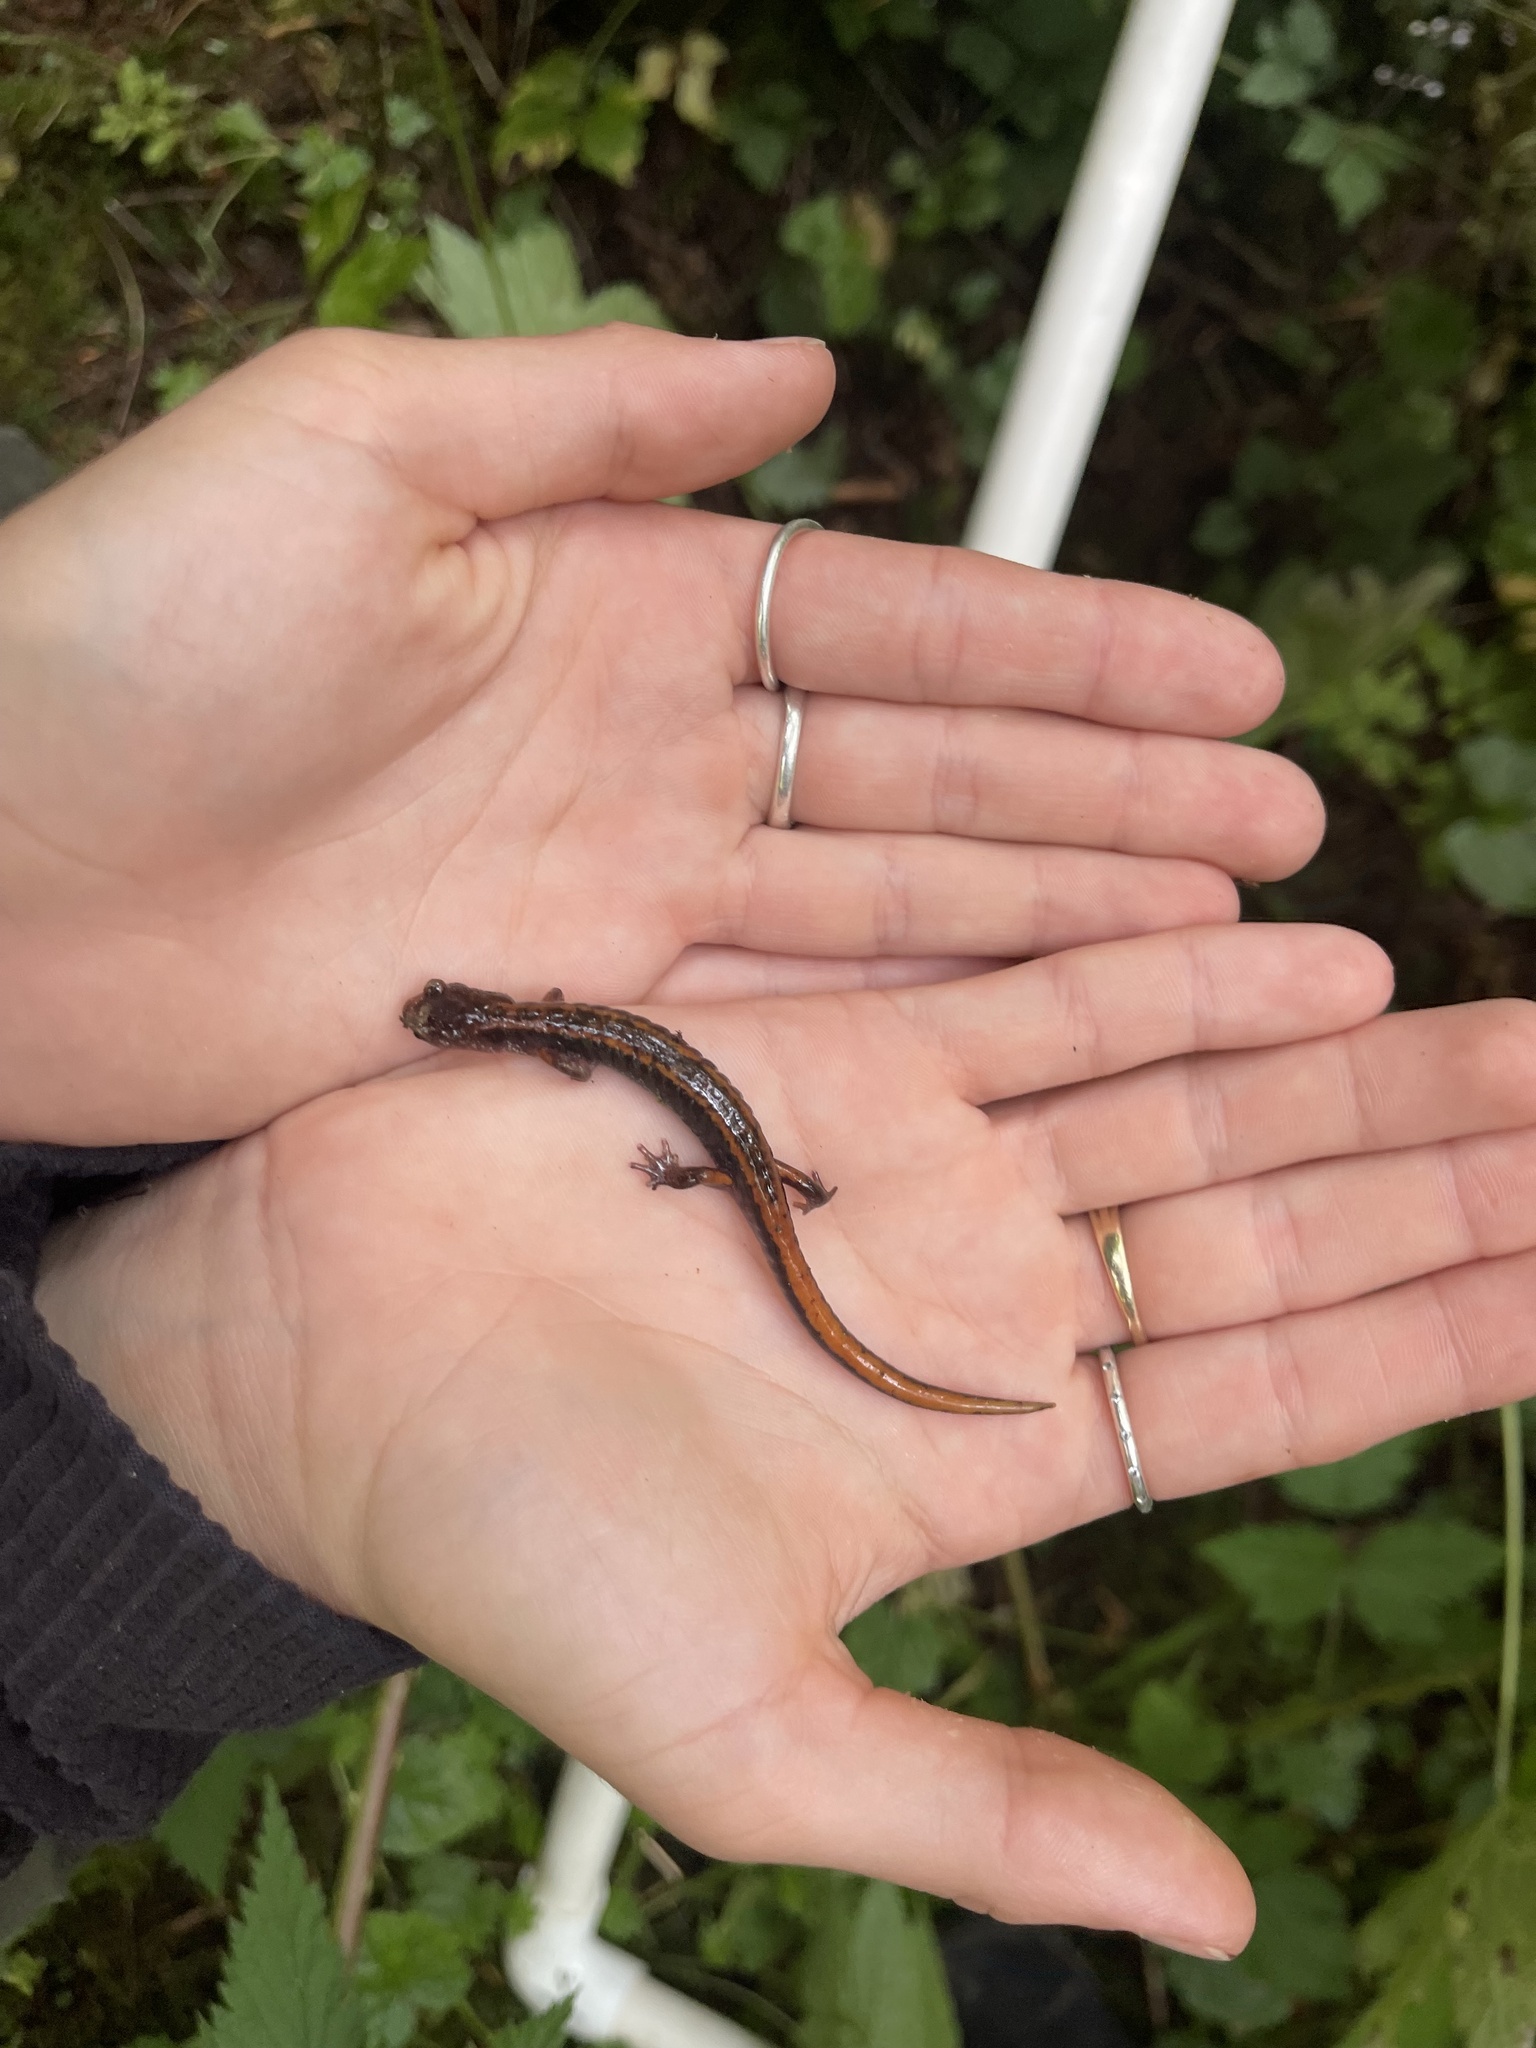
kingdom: Animalia
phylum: Chordata
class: Amphibia
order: Caudata
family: Plethodontidae
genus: Plethodon
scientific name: Plethodon vehiculum
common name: Western red-backed salamander
